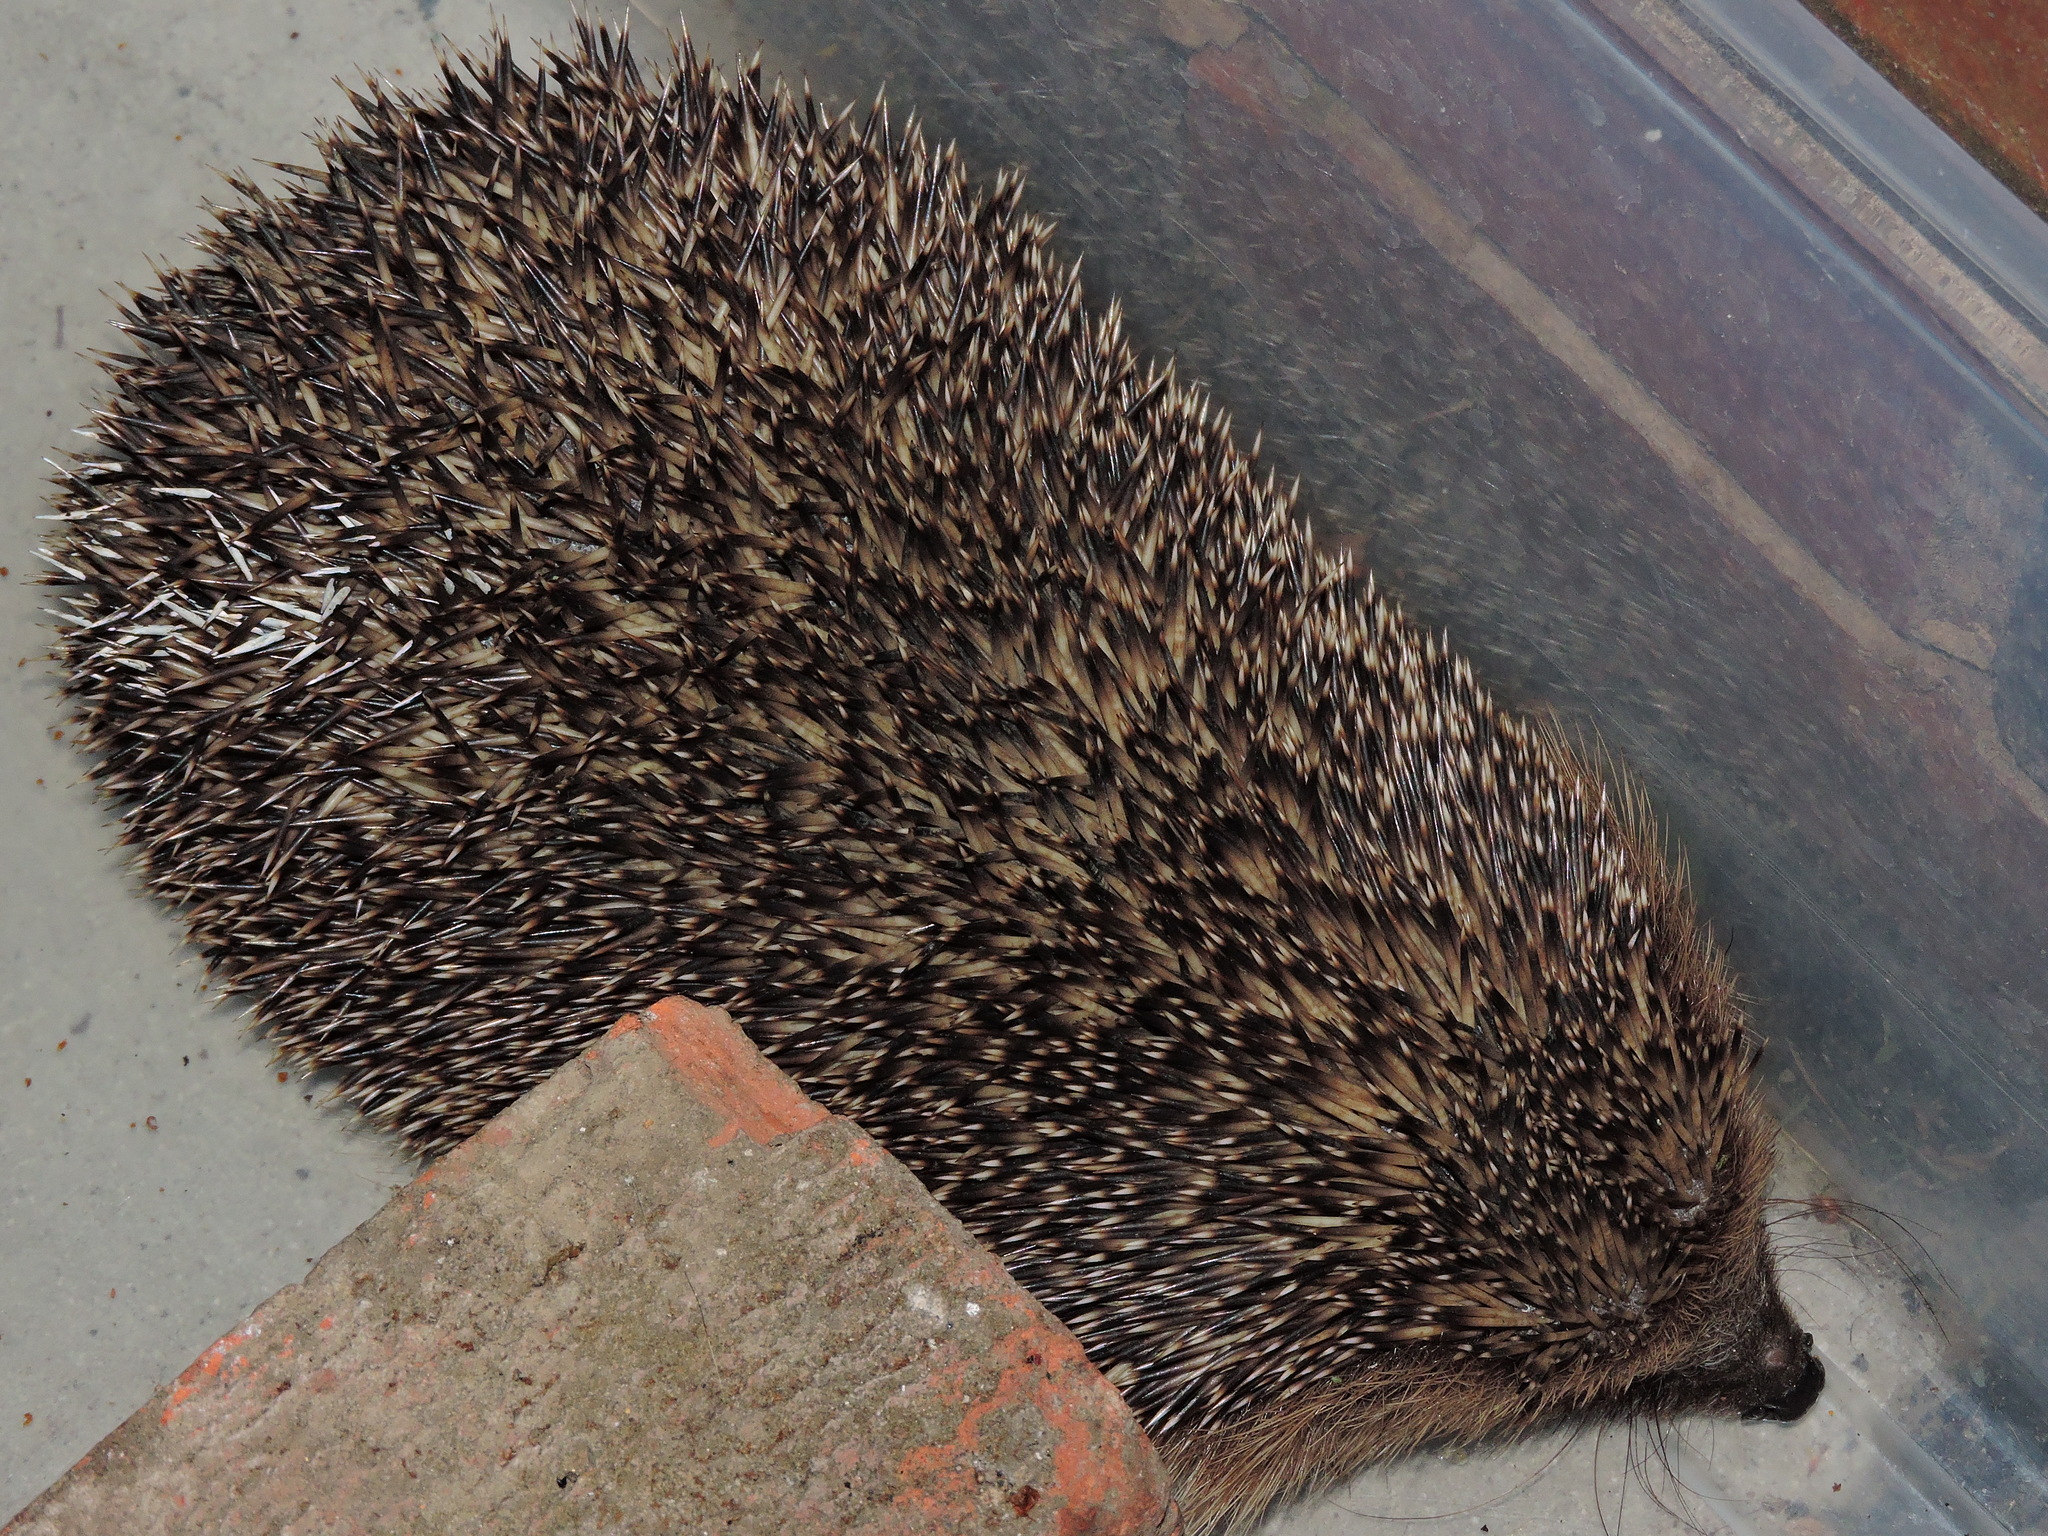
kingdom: Animalia
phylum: Chordata
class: Mammalia
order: Erinaceomorpha
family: Erinaceidae
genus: Erinaceus
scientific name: Erinaceus europaeus
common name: West european hedgehog
